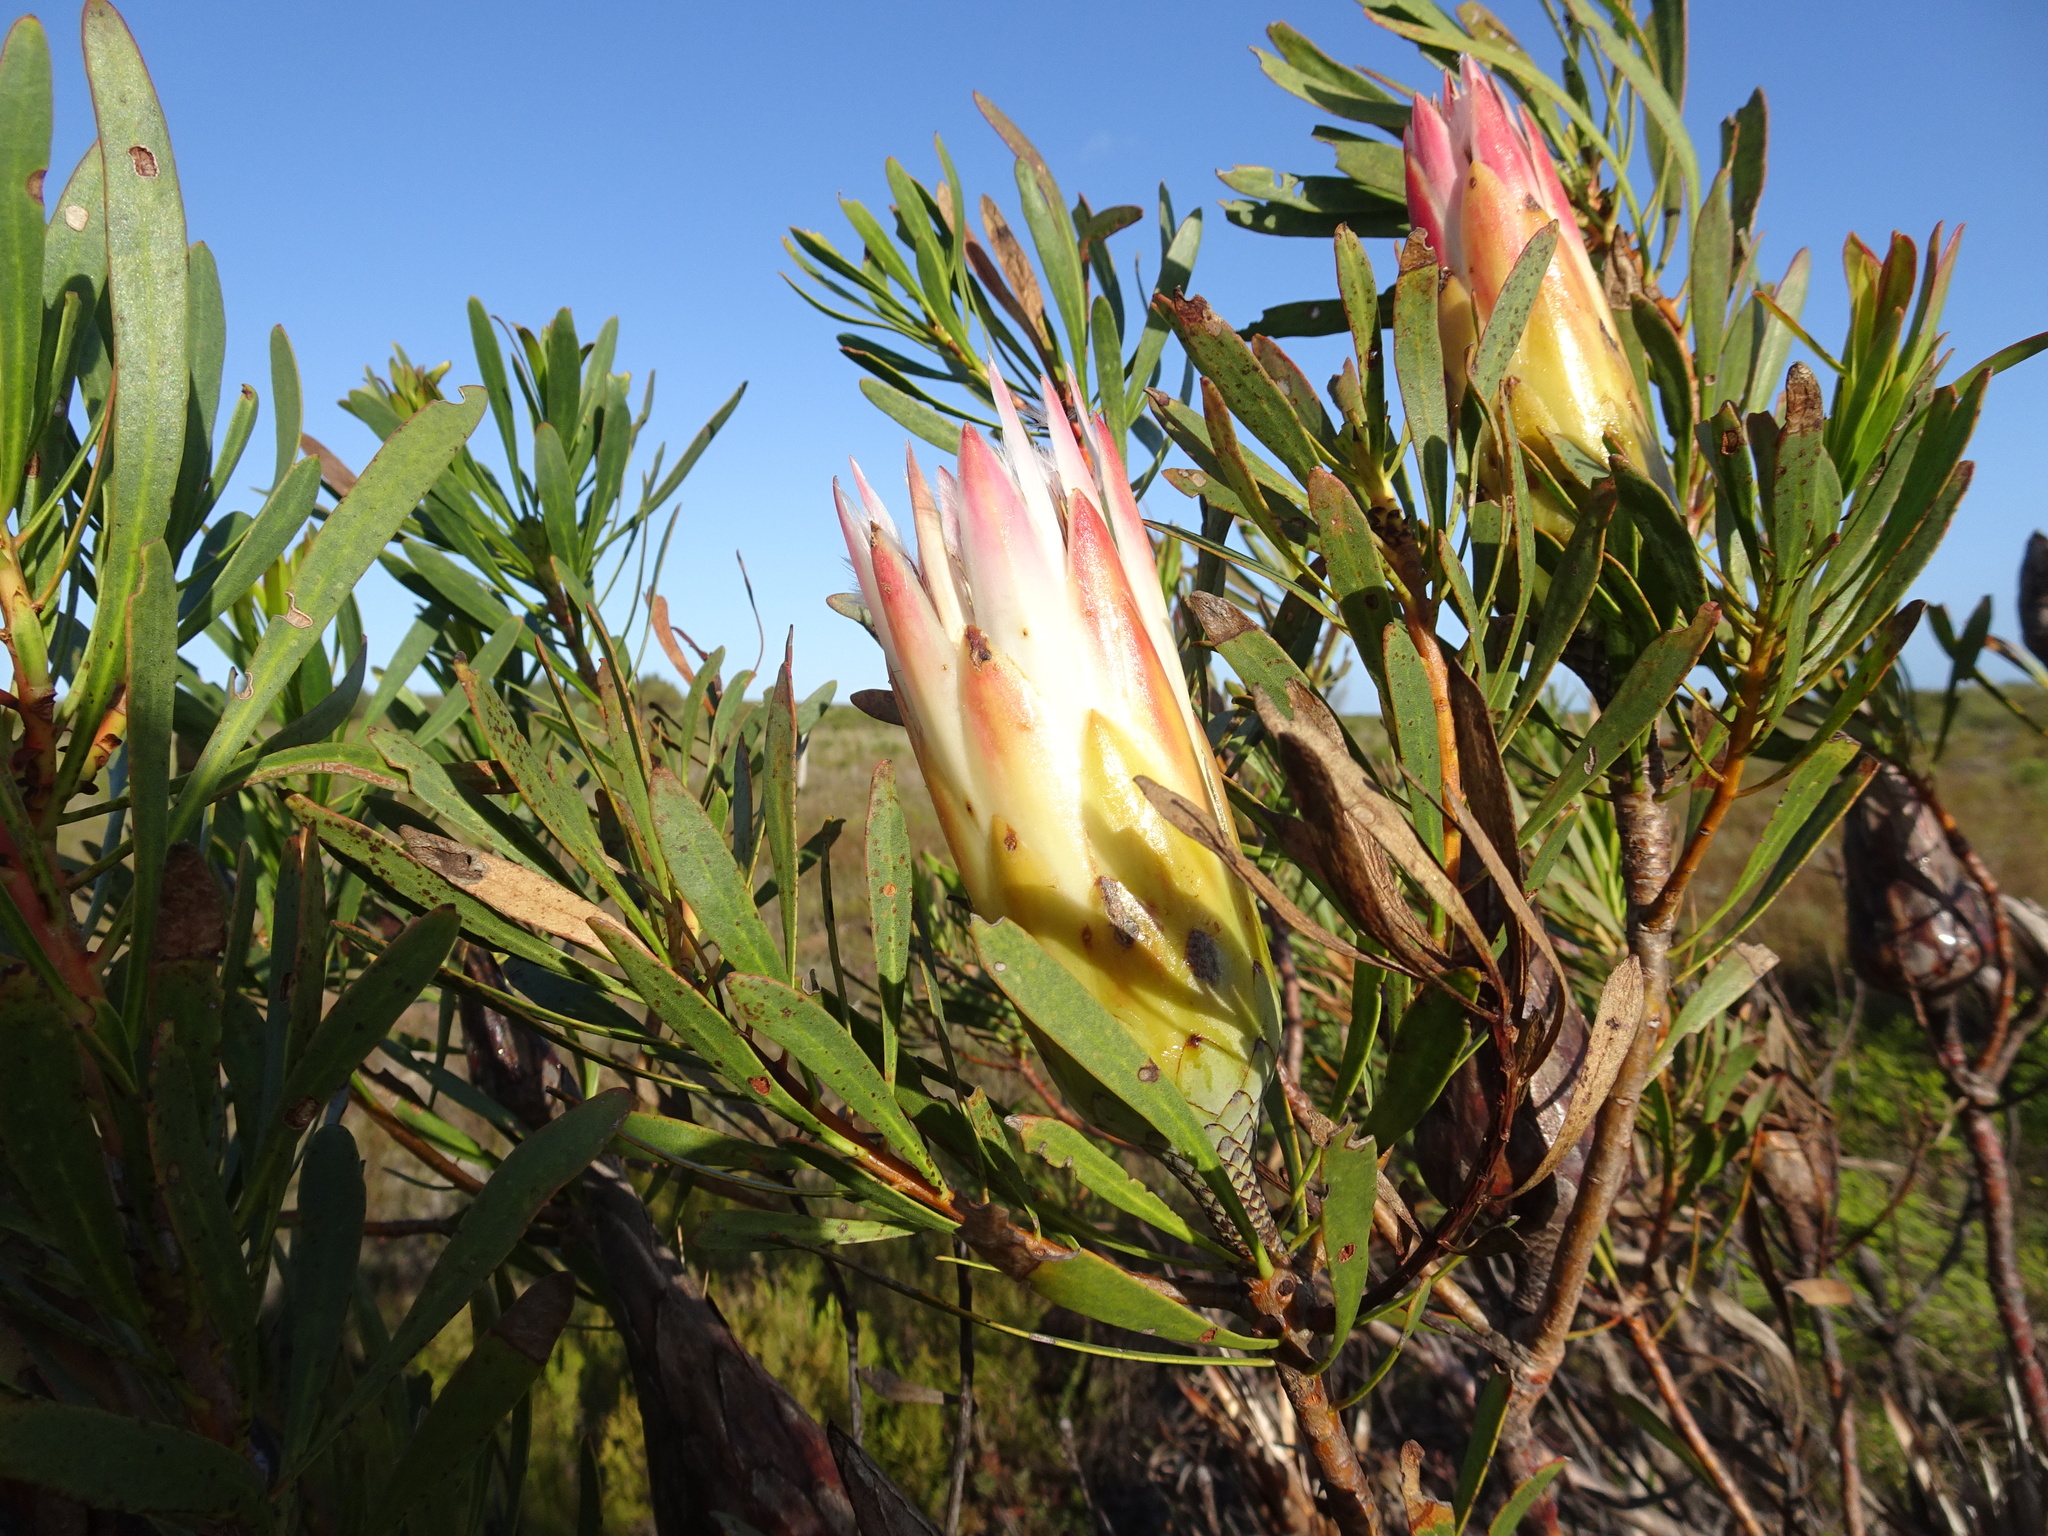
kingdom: Plantae
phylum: Tracheophyta
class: Magnoliopsida
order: Proteales
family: Proteaceae
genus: Protea
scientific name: Protea repens
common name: Sugarbush
